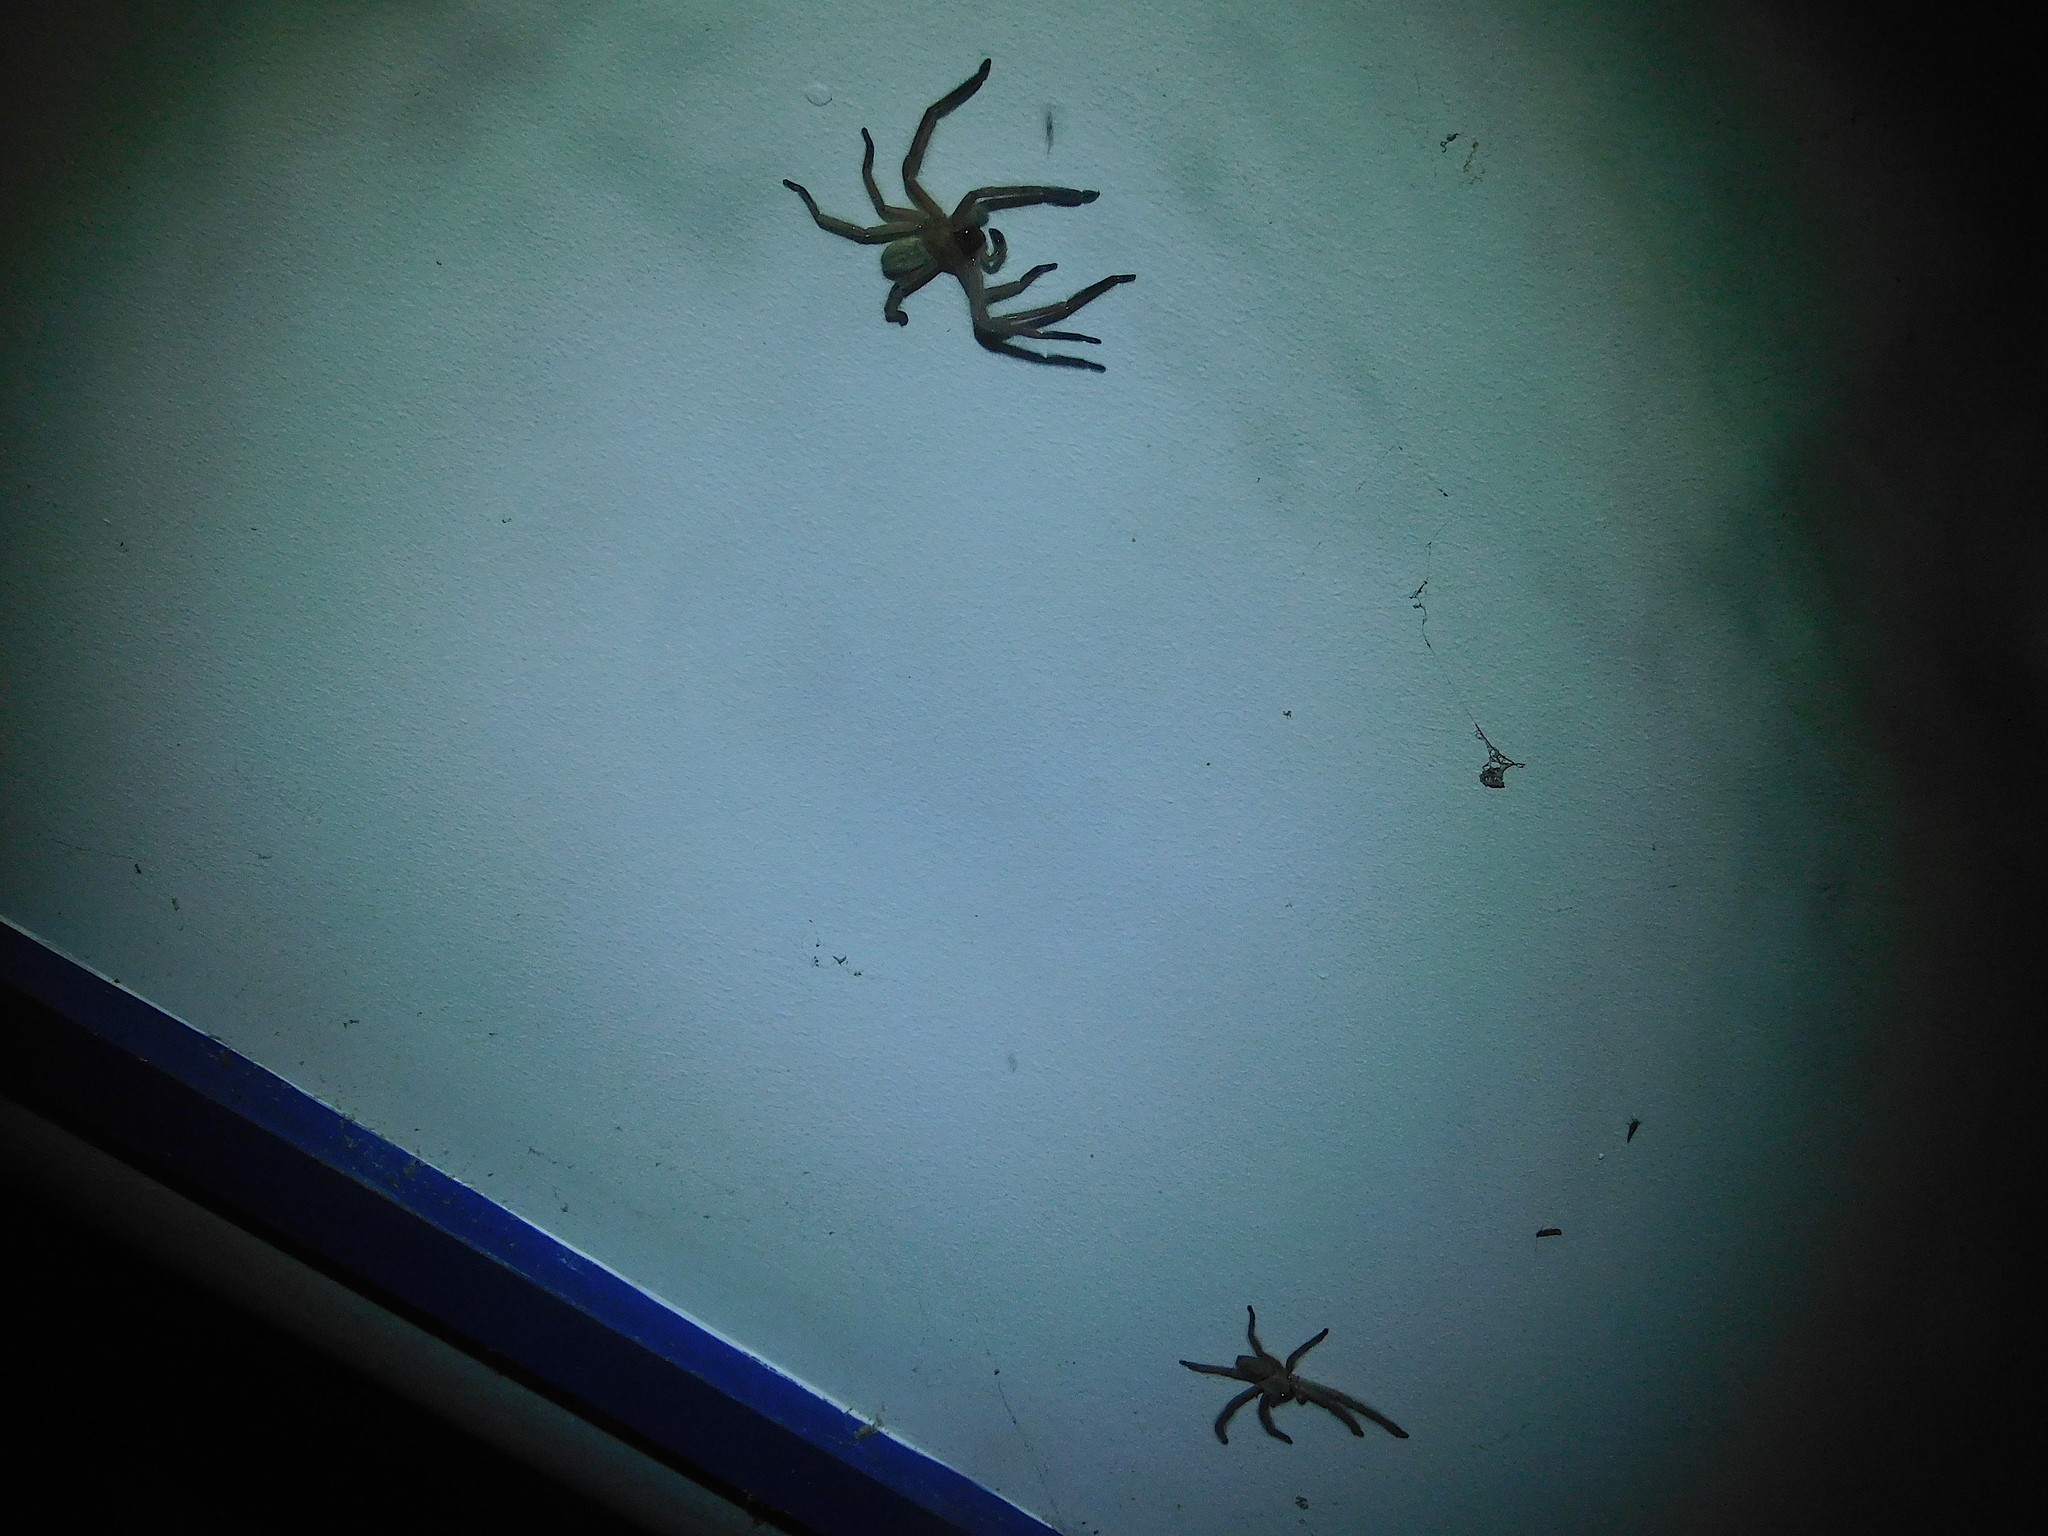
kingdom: Animalia
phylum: Arthropoda
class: Arachnida
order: Araneae
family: Sparassidae
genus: Delena
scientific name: Delena cancerides
